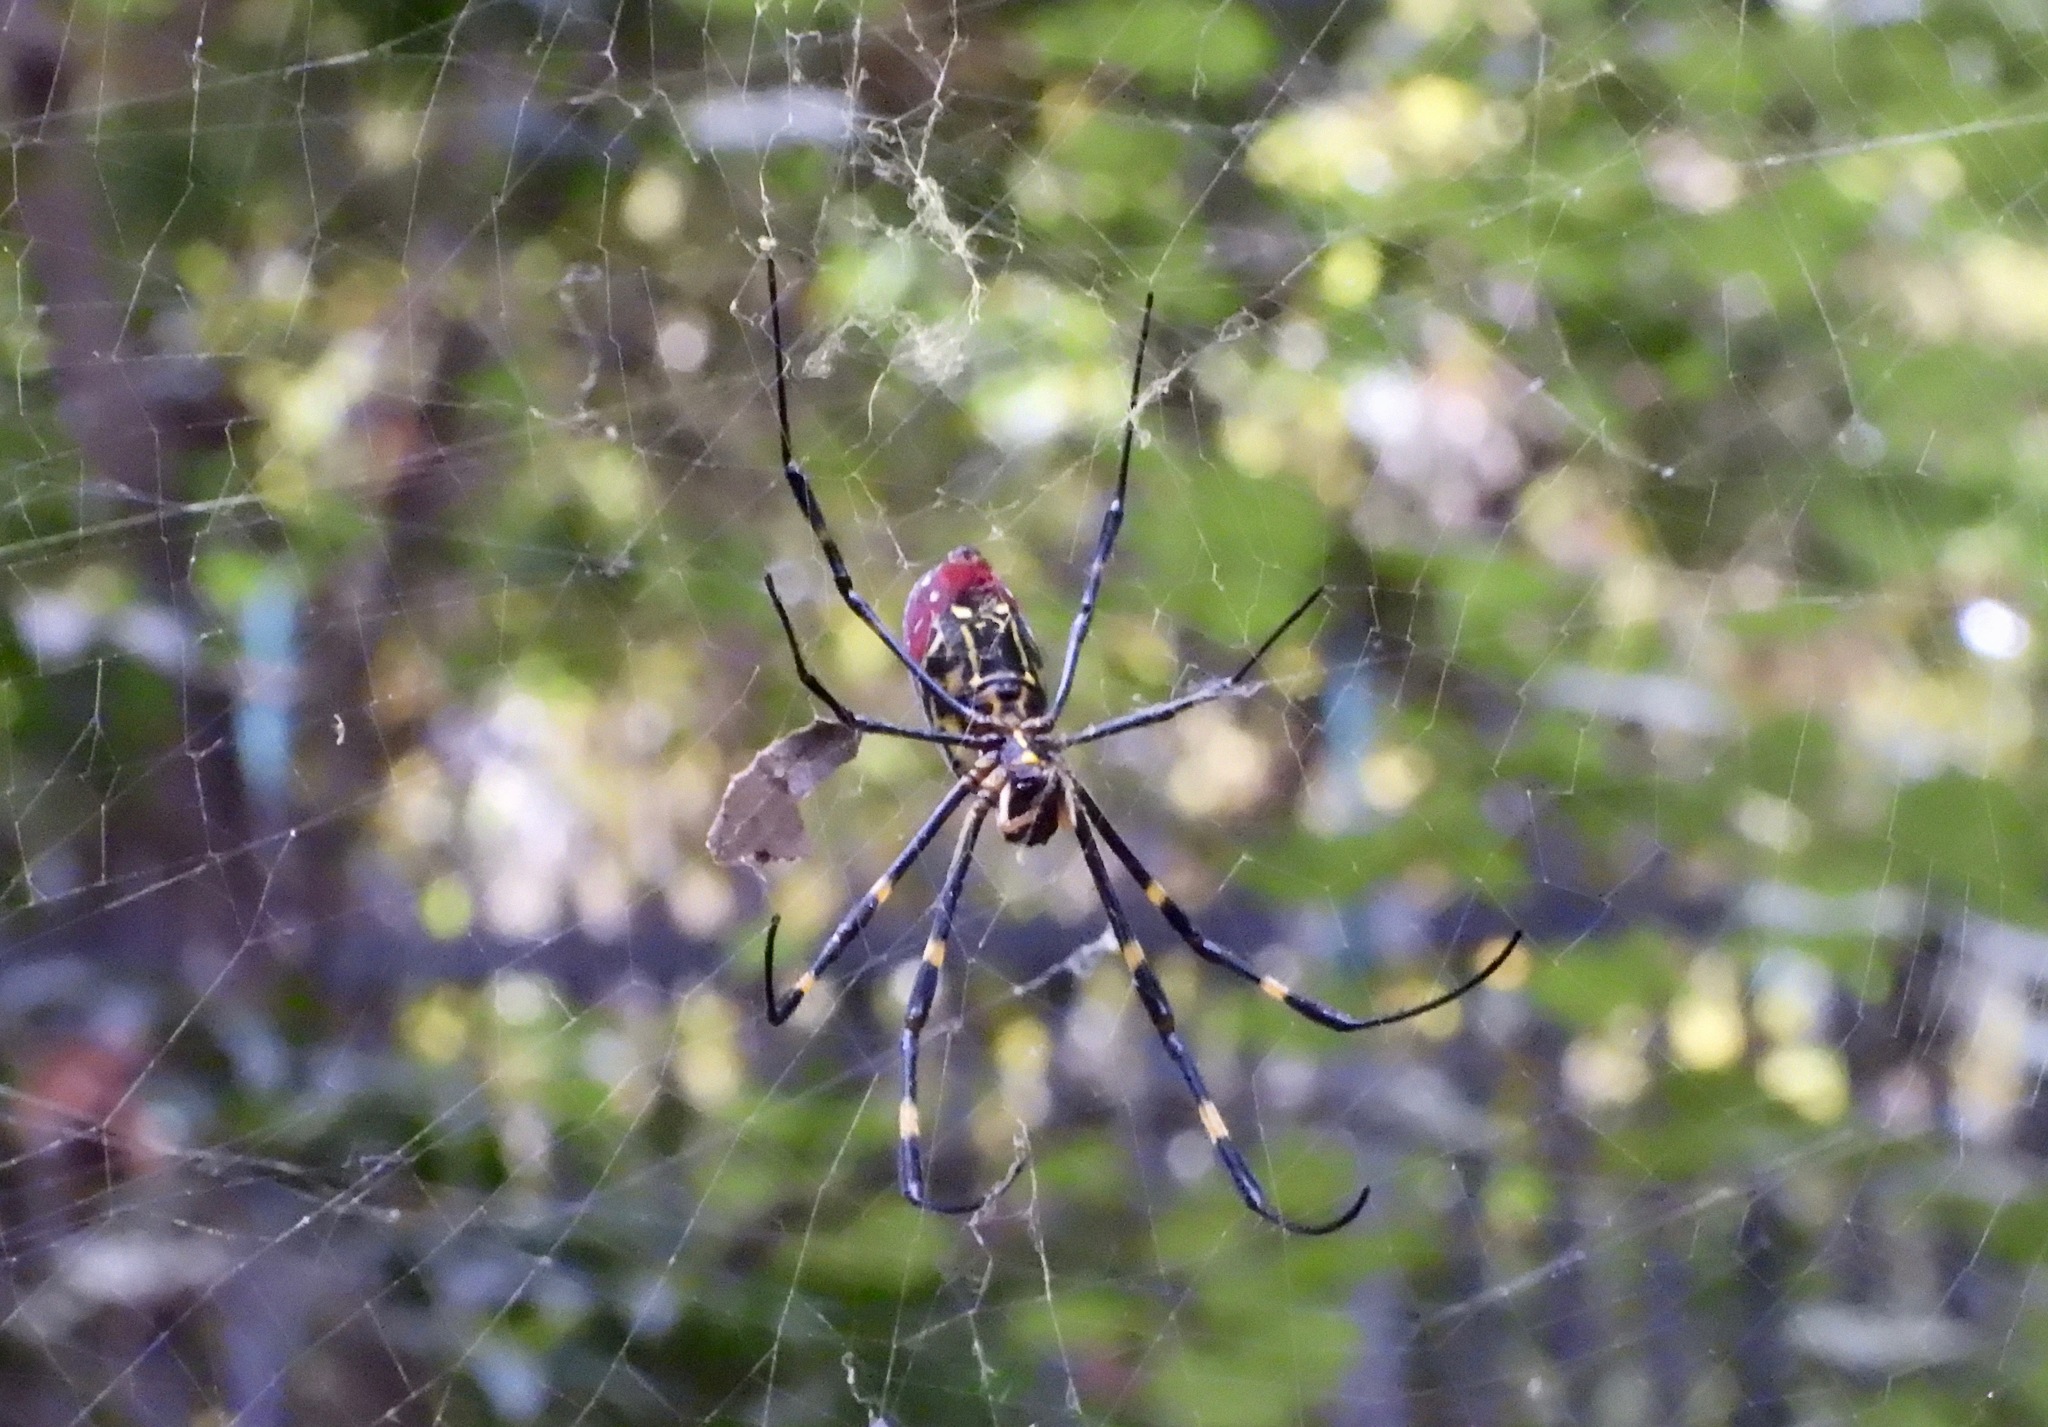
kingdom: Animalia
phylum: Arthropoda
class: Arachnida
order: Araneae
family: Araneidae
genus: Trichonephila
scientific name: Trichonephila clavata
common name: Jorō spider
